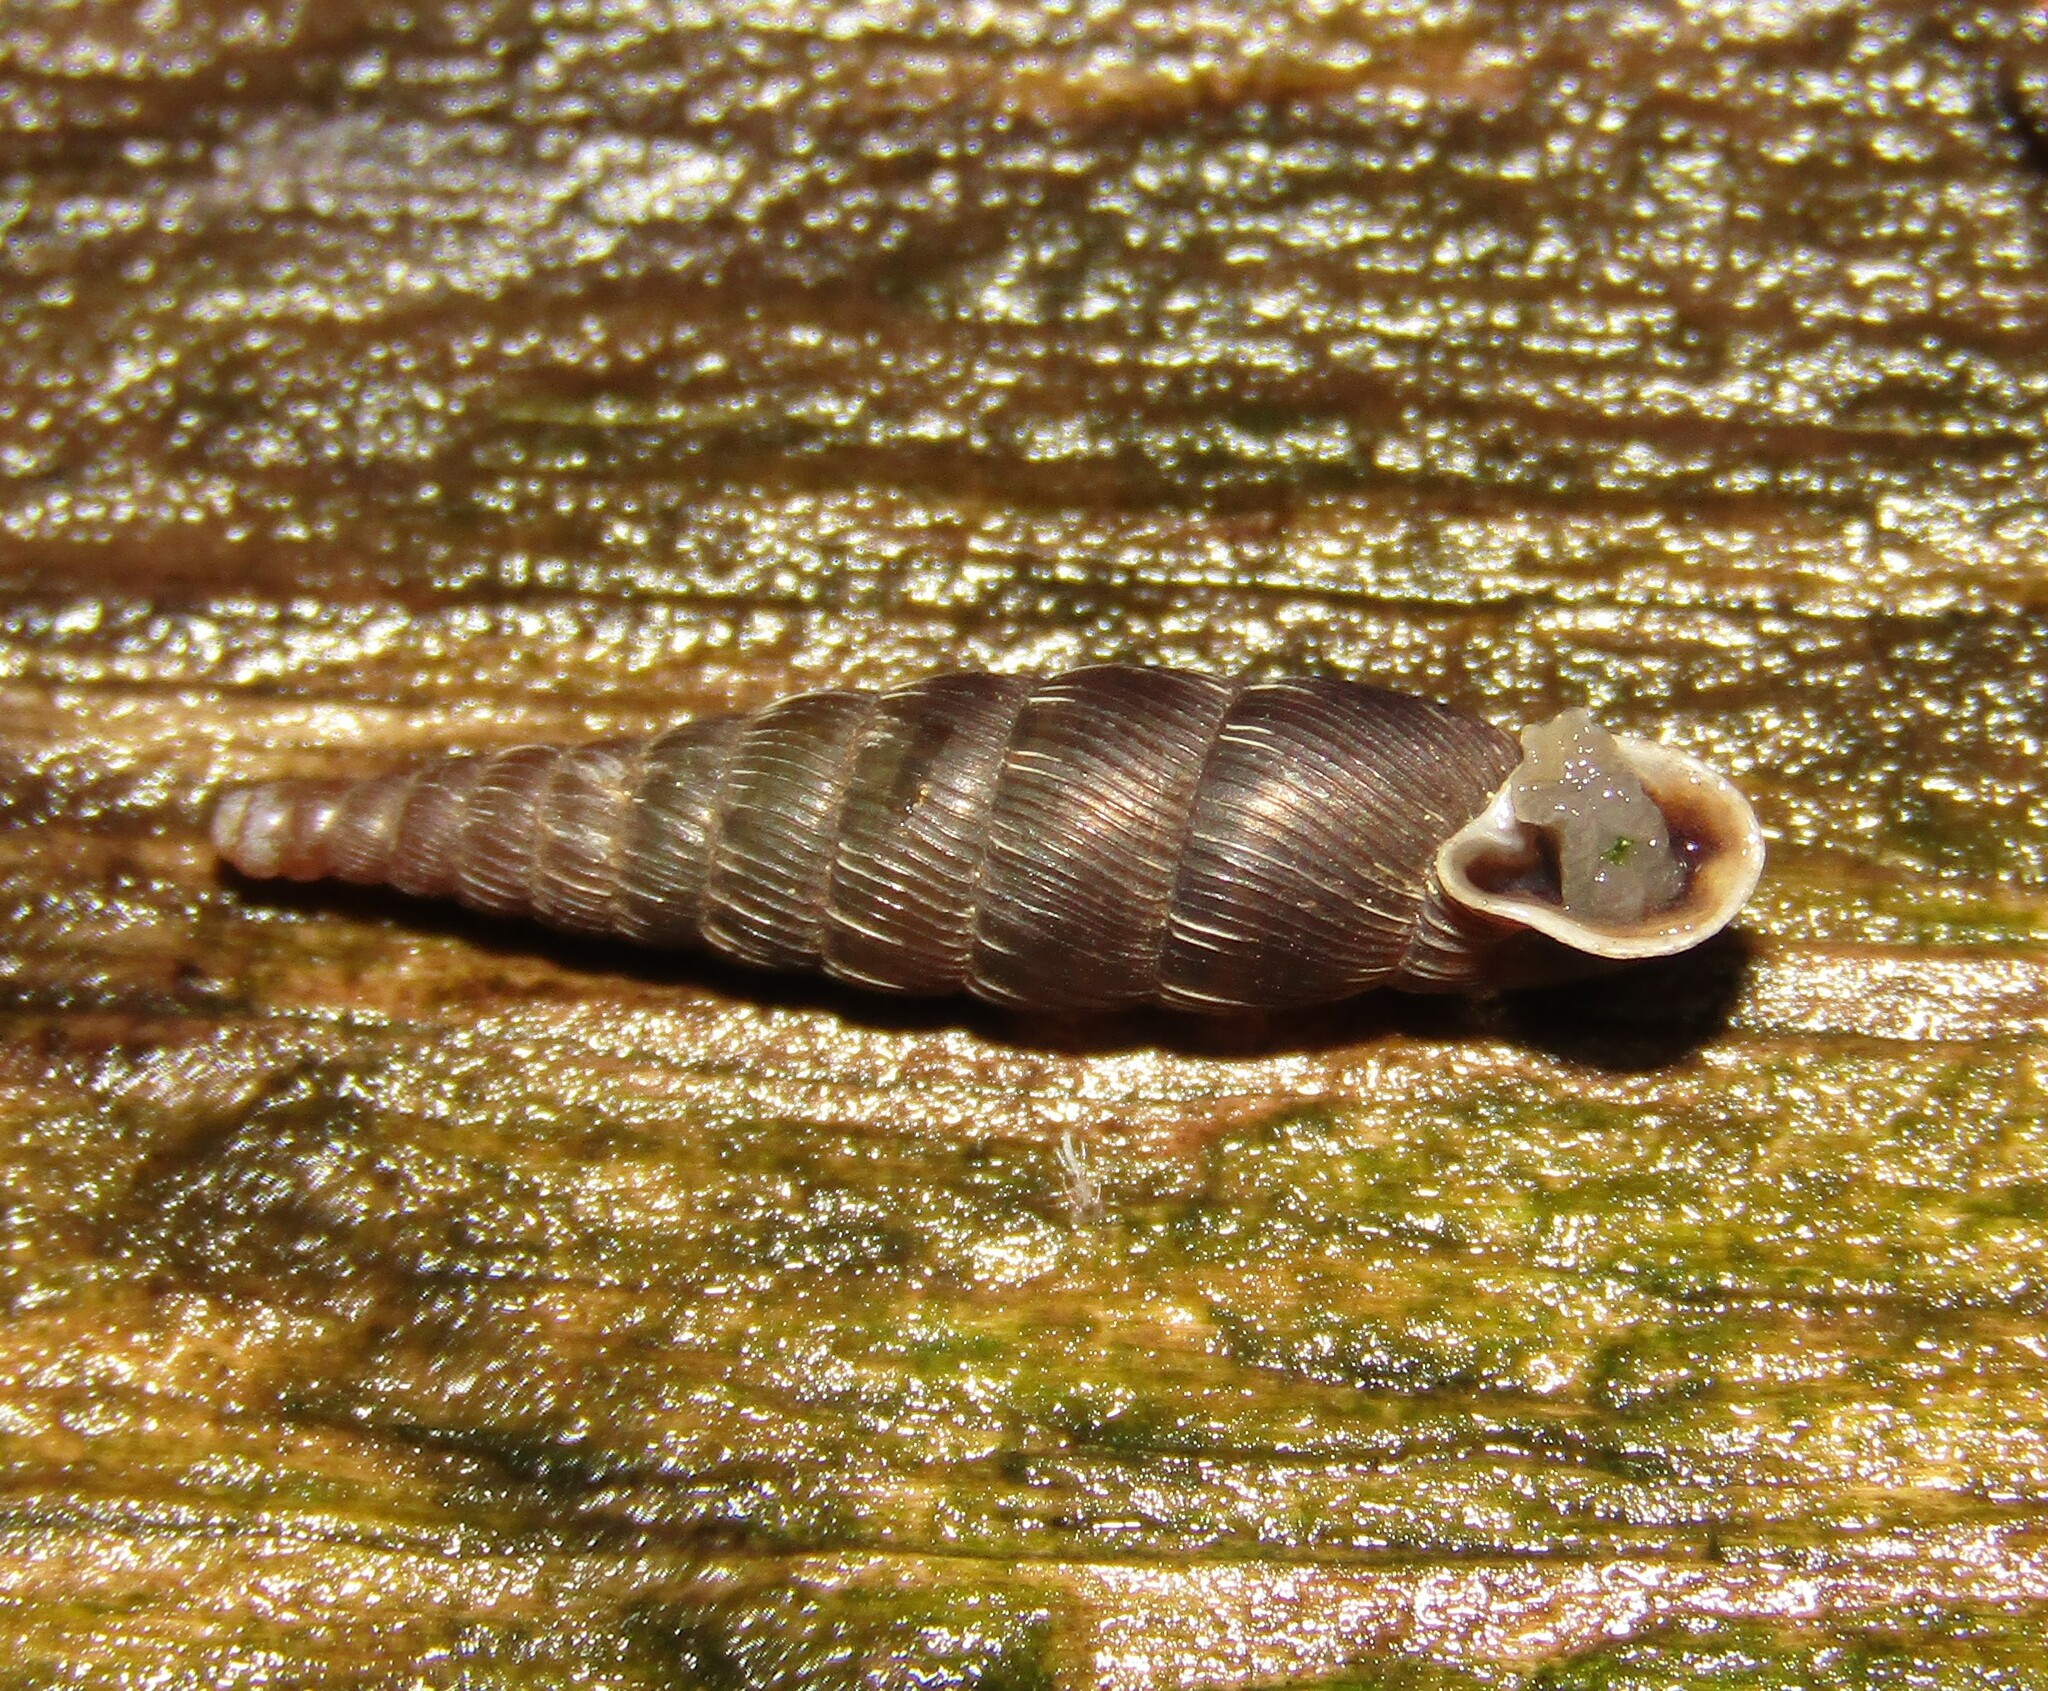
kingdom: Animalia
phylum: Mollusca
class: Gastropoda
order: Stylommatophora
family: Clausiliidae
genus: Scrobifera
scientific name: Scrobifera taurica
